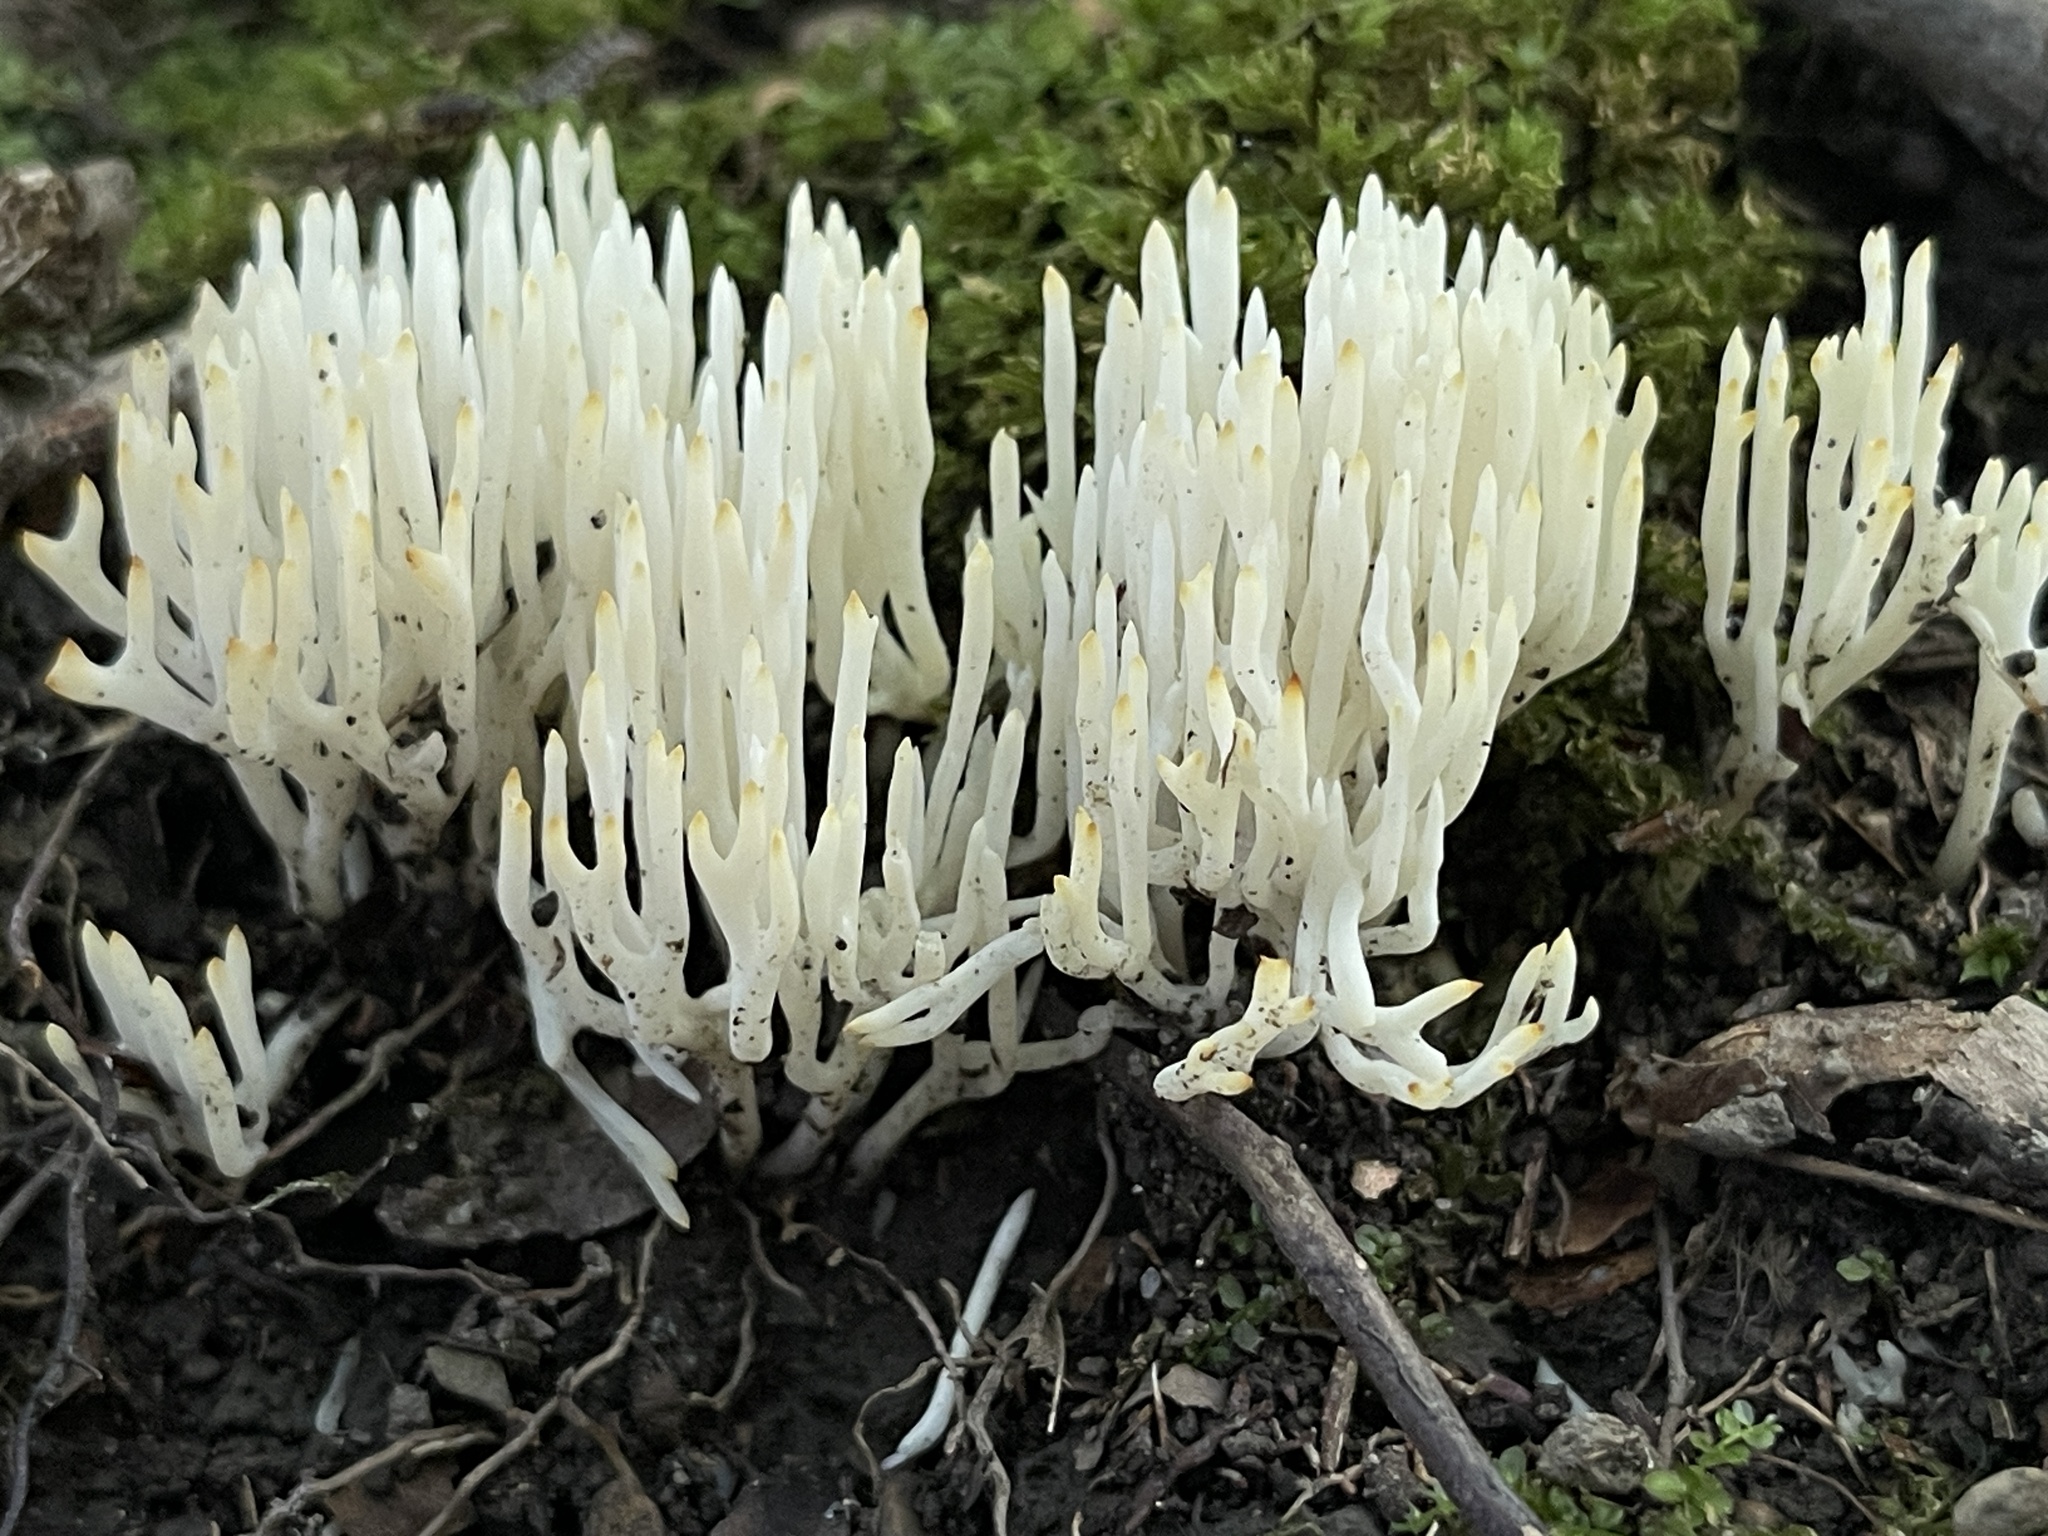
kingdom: Fungi
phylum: Basidiomycota
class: Agaricomycetes
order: Agaricales
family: Clavariaceae
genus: Clavaria
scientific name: Clavaria fragilis
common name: White spindles
